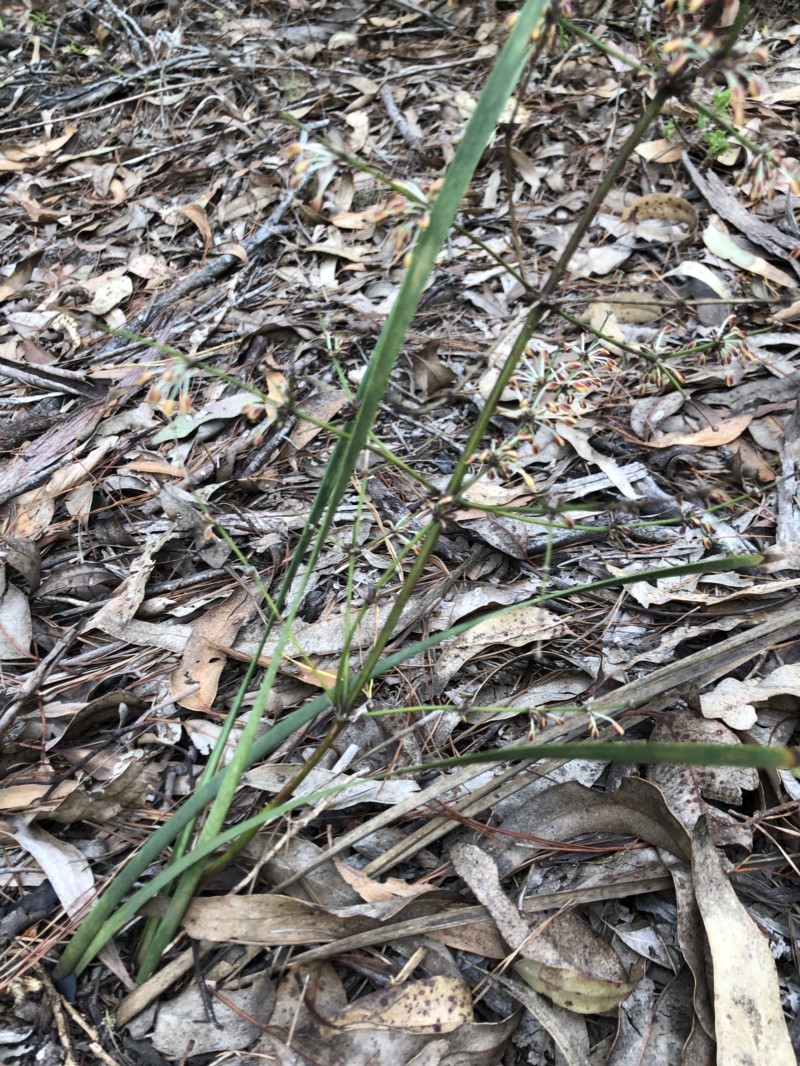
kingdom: Plantae
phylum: Tracheophyta
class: Liliopsida
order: Asparagales
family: Asparagaceae
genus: Lomandra
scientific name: Lomandra multiflora
